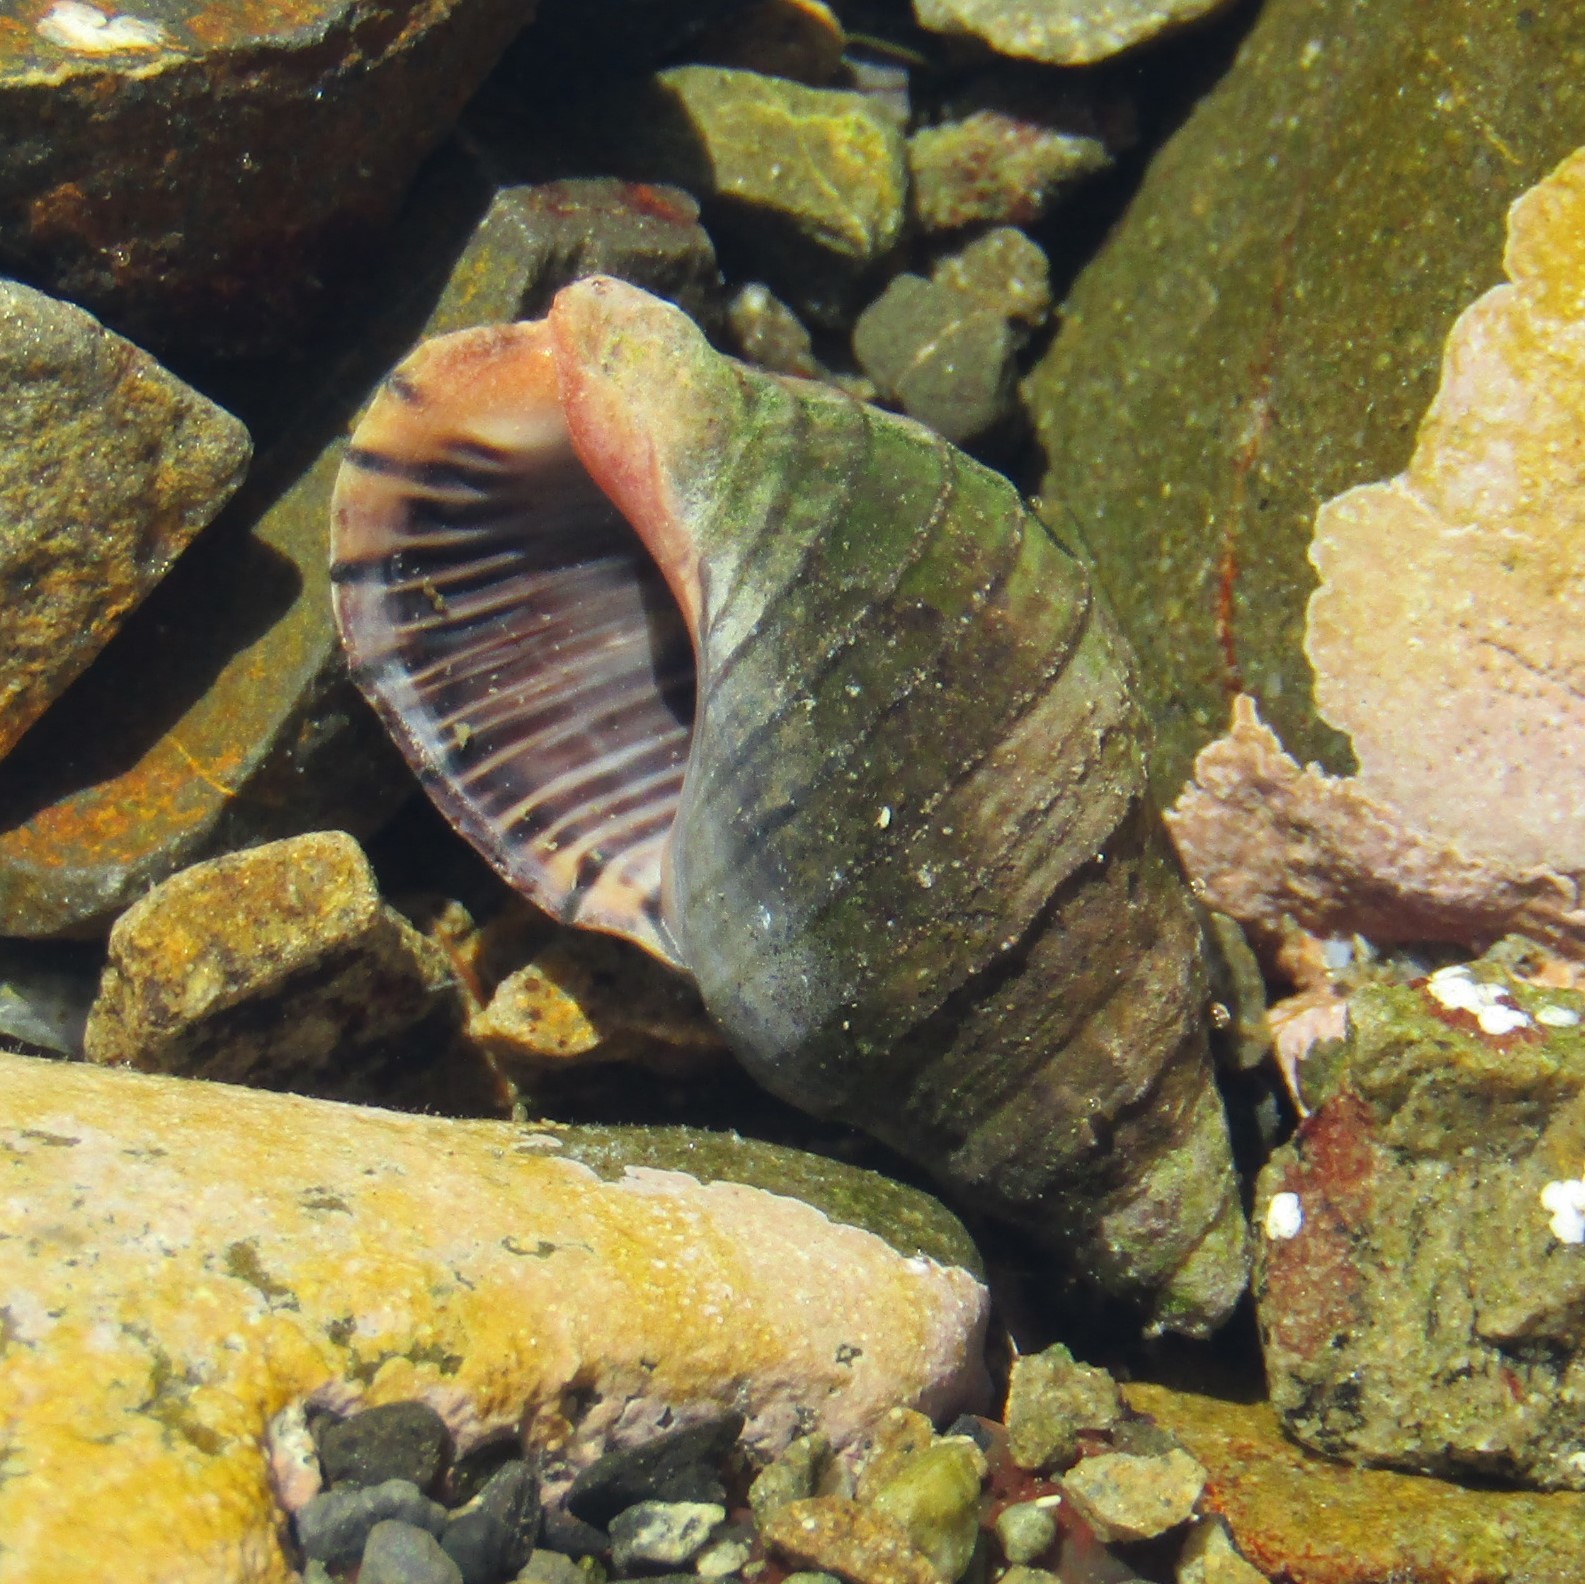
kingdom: Animalia
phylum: Mollusca
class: Gastropoda
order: Neogastropoda
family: Cominellidae
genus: Cominella
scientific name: Cominella virgata
